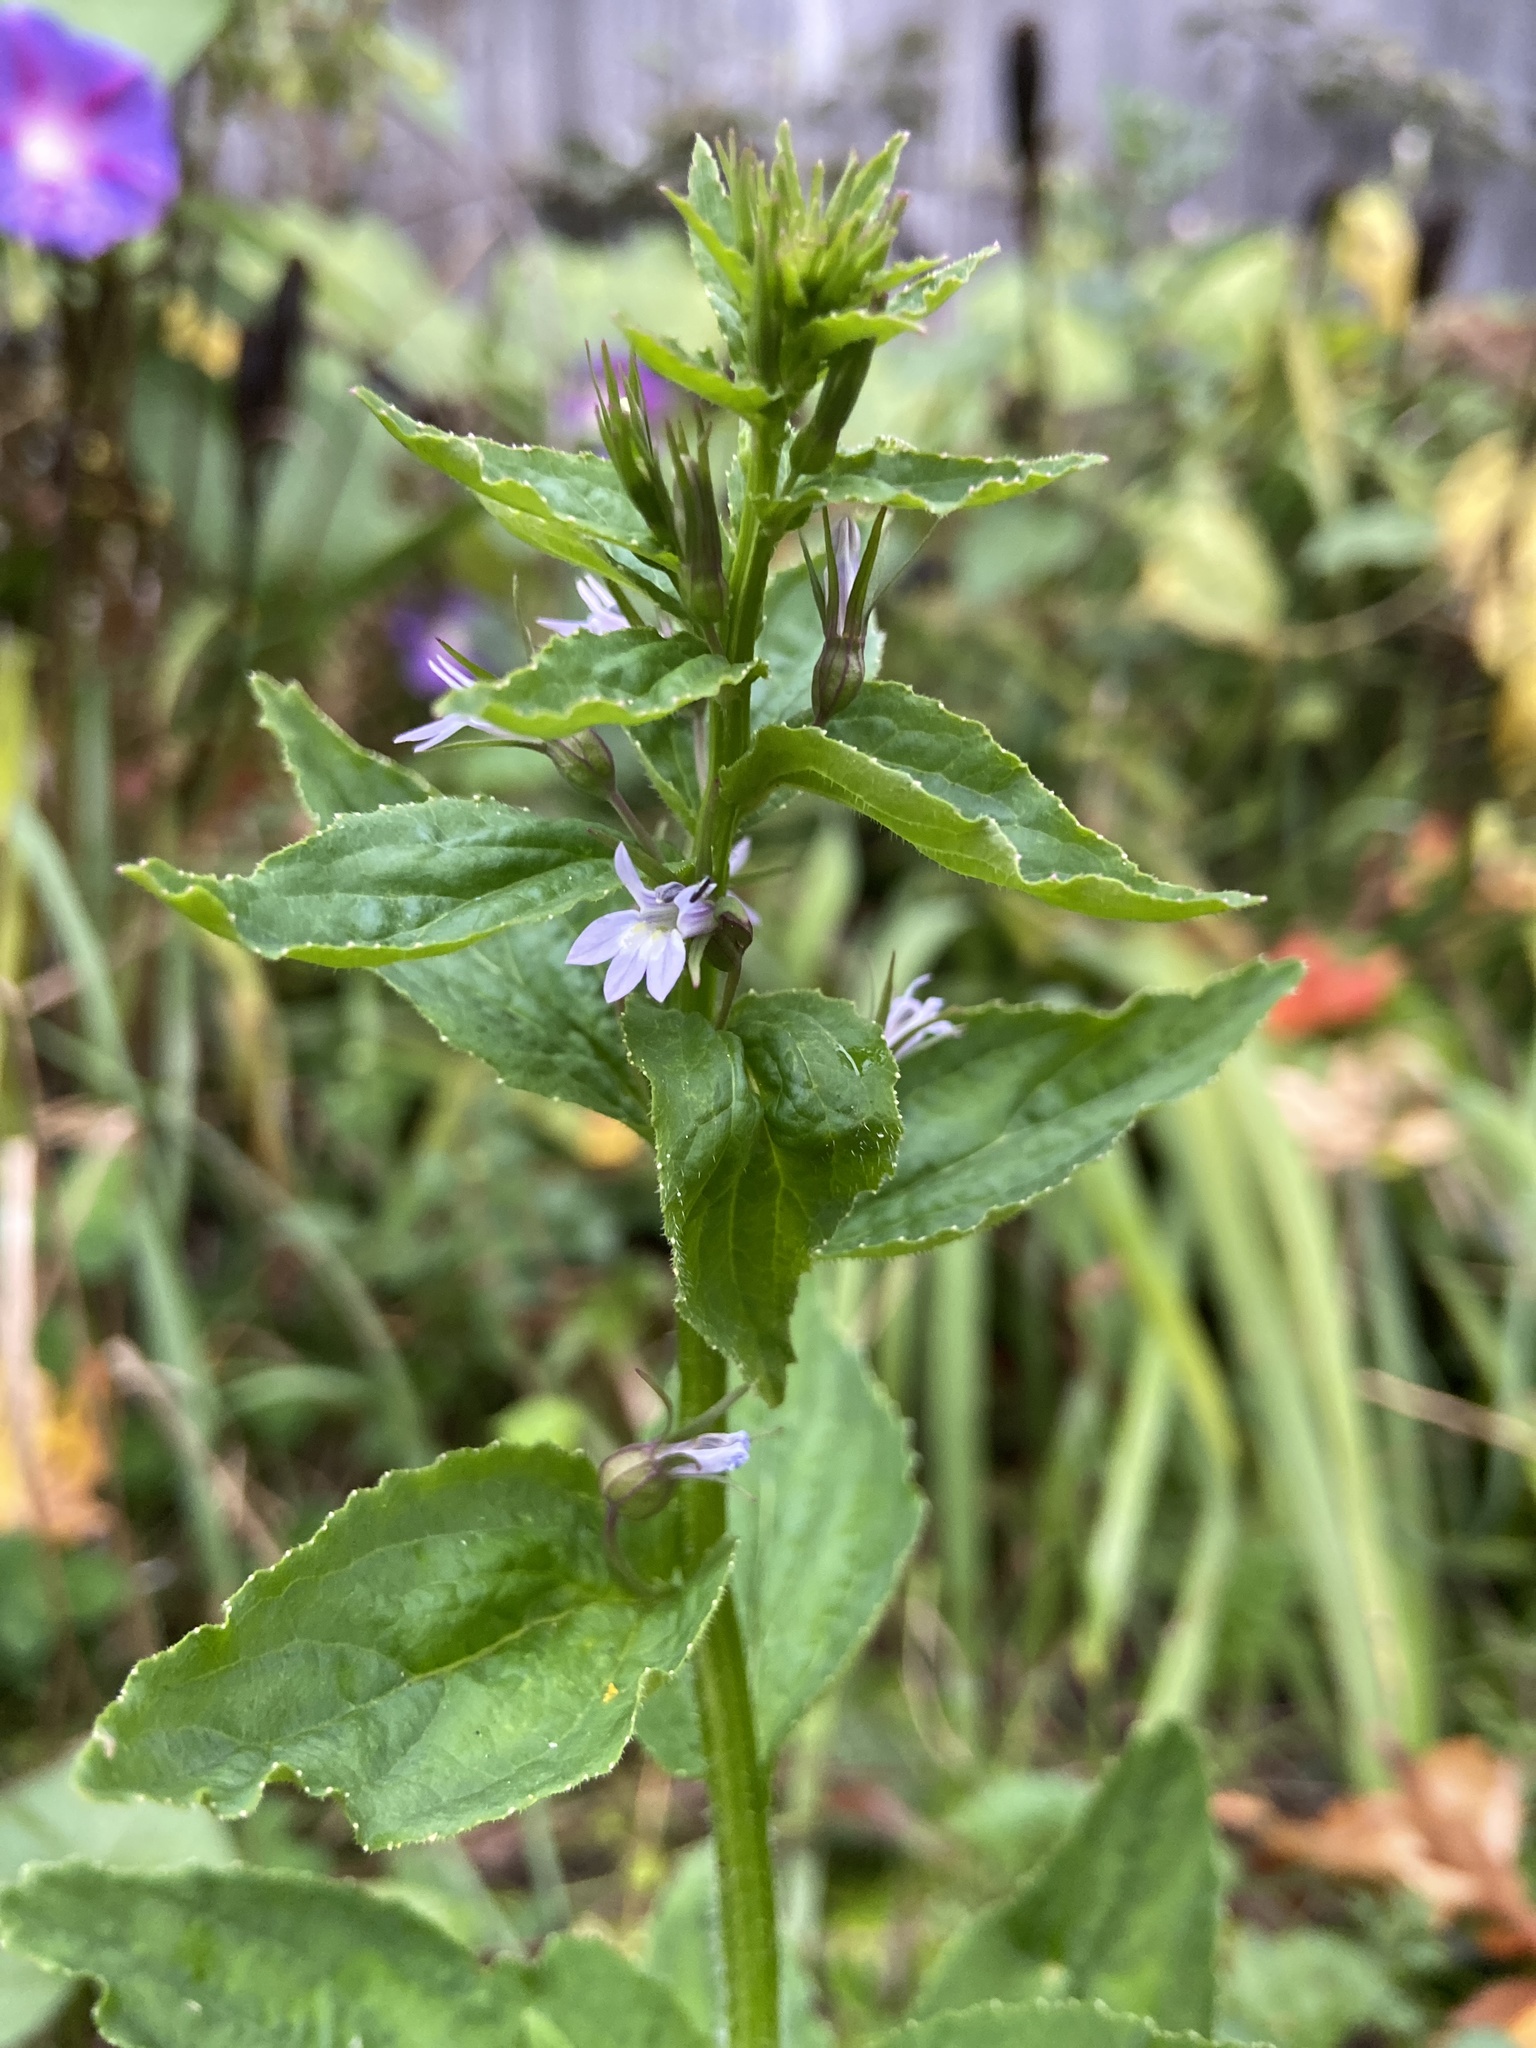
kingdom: Plantae
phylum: Tracheophyta
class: Magnoliopsida
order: Asterales
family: Campanulaceae
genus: Lobelia
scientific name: Lobelia inflata
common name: Indian tobacco
